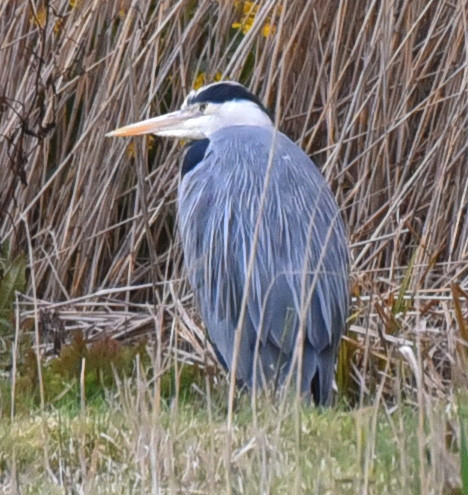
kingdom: Animalia
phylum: Chordata
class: Aves
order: Pelecaniformes
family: Ardeidae
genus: Ardea
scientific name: Ardea cinerea
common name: Grey heron
